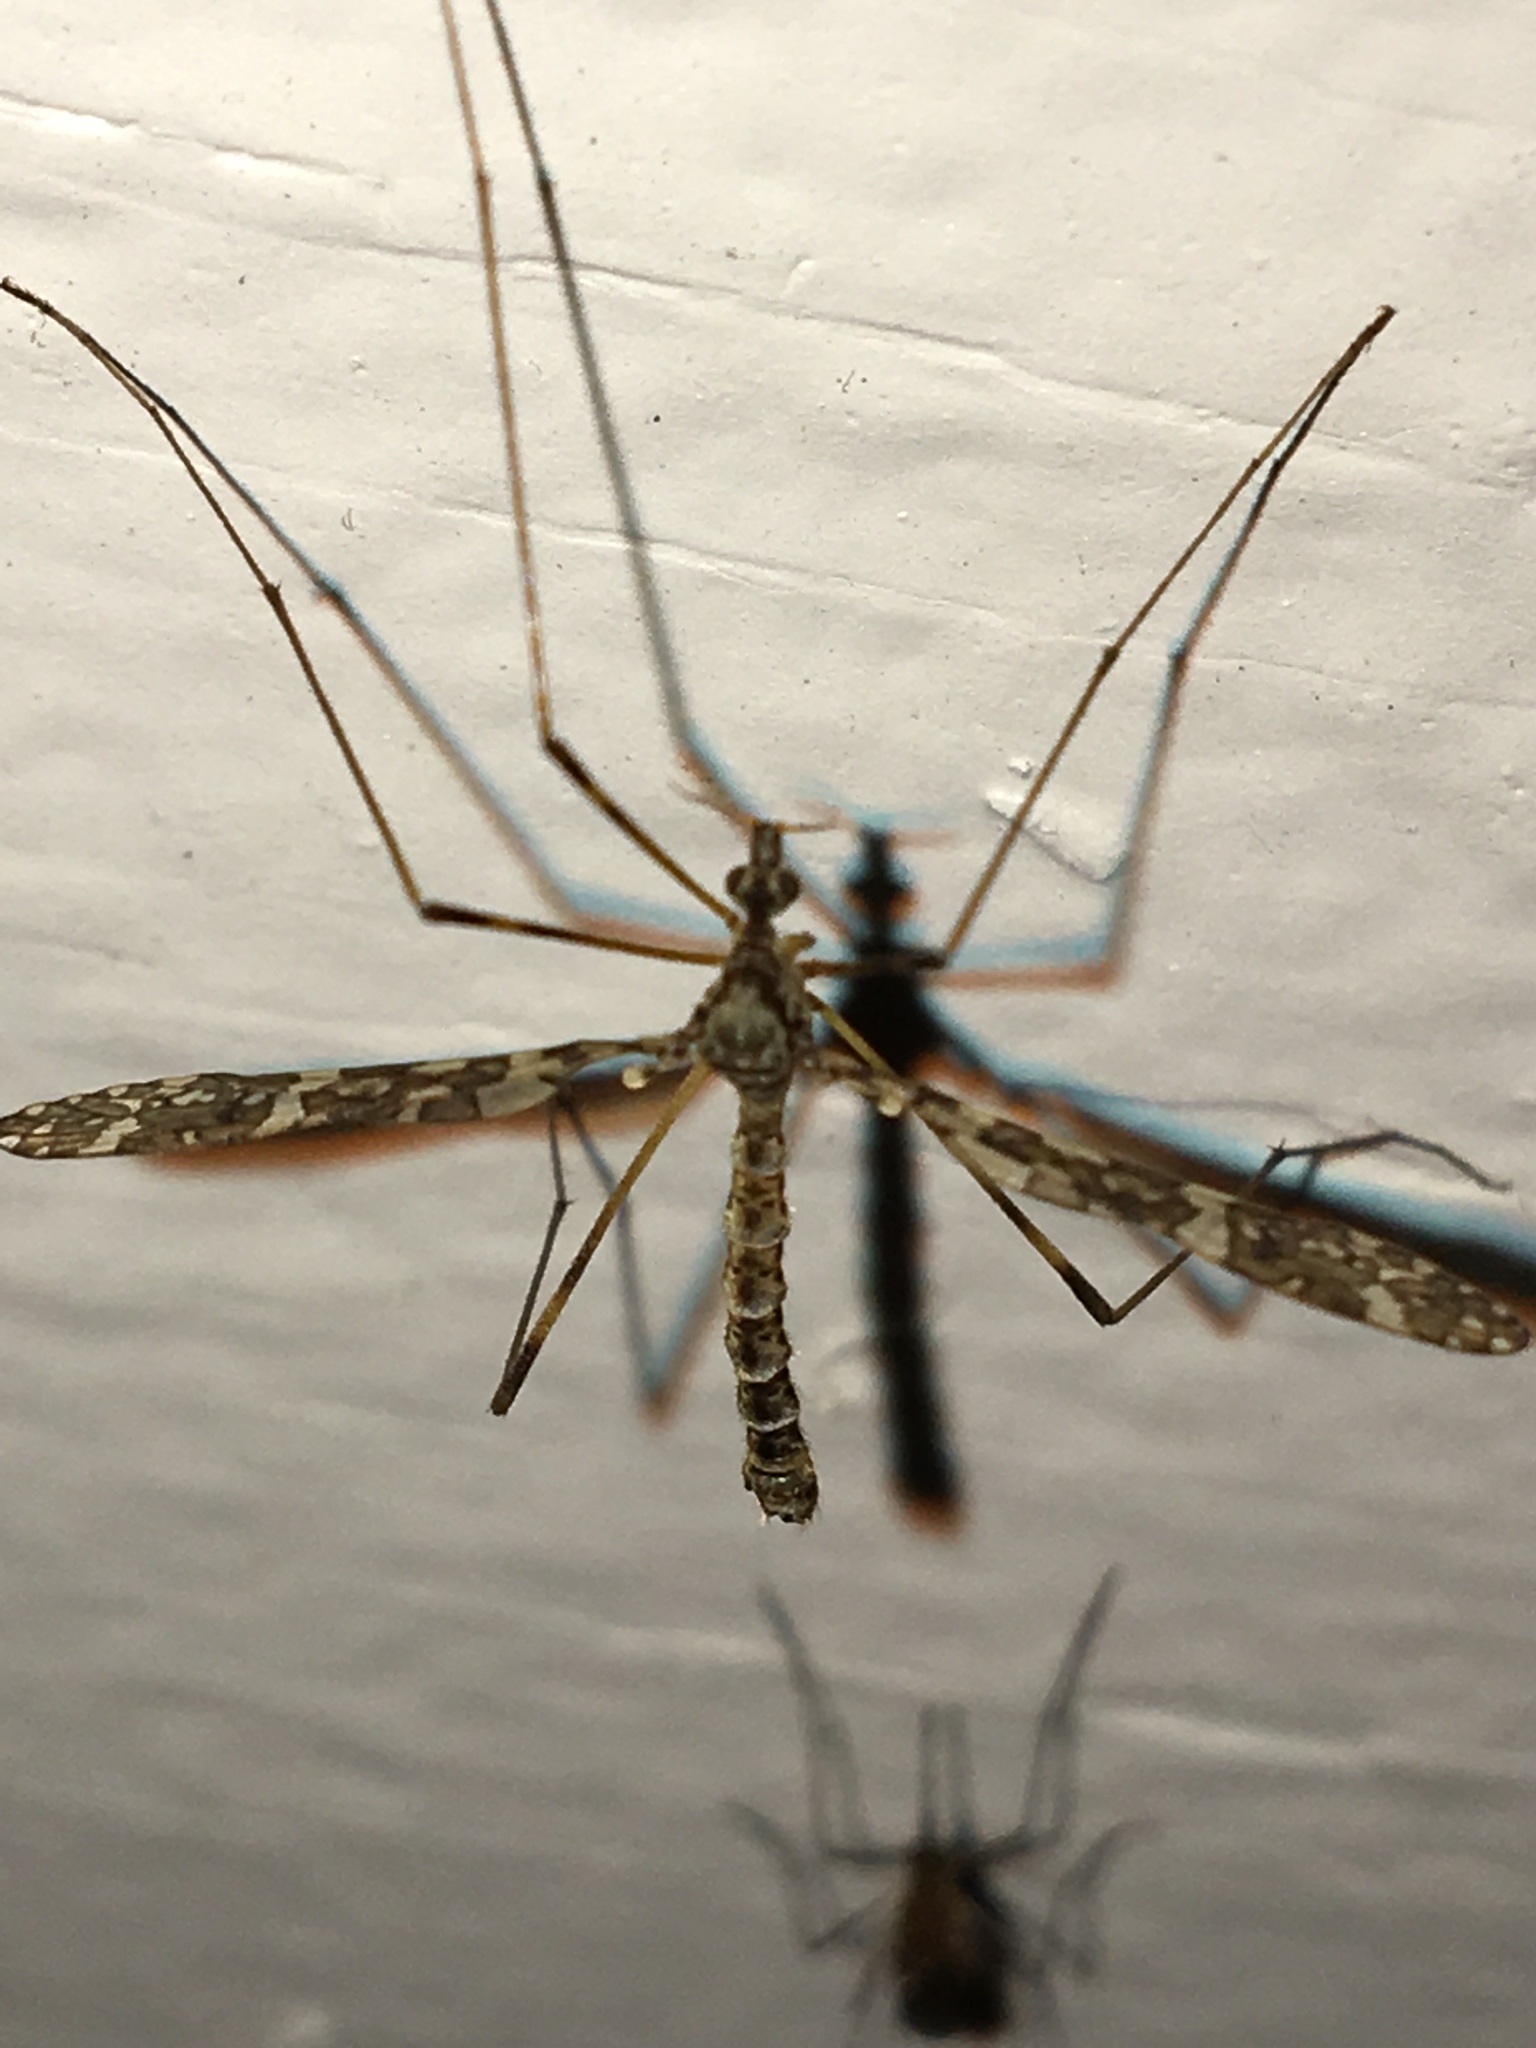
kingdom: Animalia
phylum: Arthropoda
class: Insecta
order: Diptera
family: Limoniidae
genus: Epiphragma
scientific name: Epiphragma fasciapenne
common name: Band-winged crane fly
